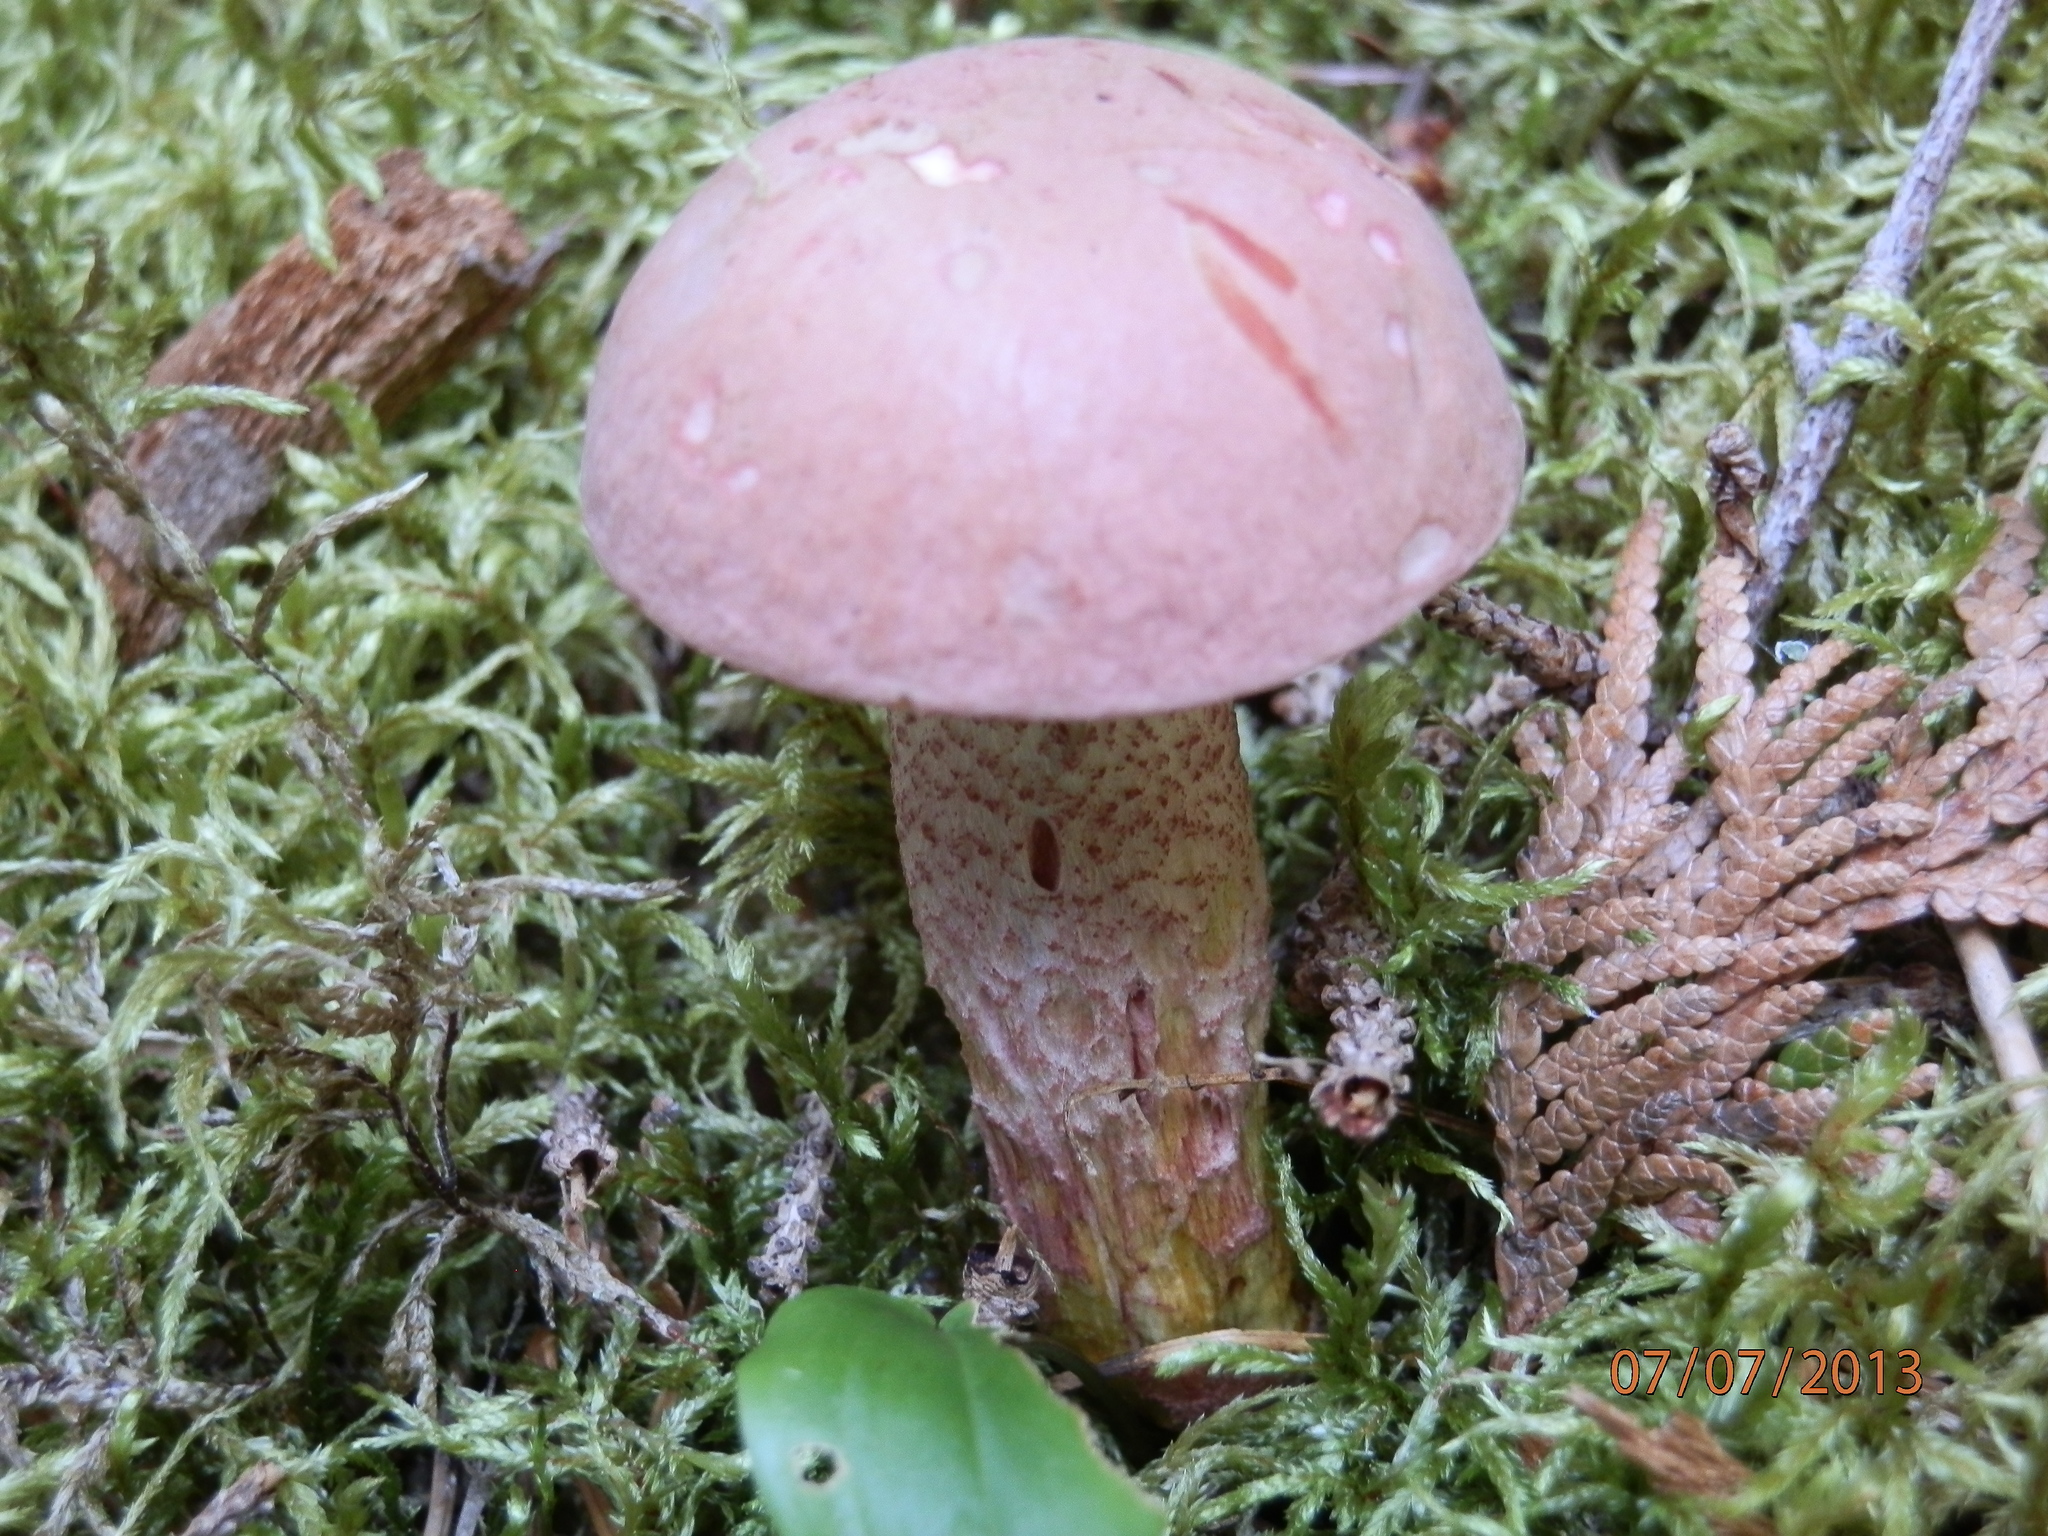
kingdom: Fungi
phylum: Basidiomycota
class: Agaricomycetes
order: Boletales
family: Boletaceae
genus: Harrya
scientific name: Harrya chromipes
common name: Chrome-footed bolete
